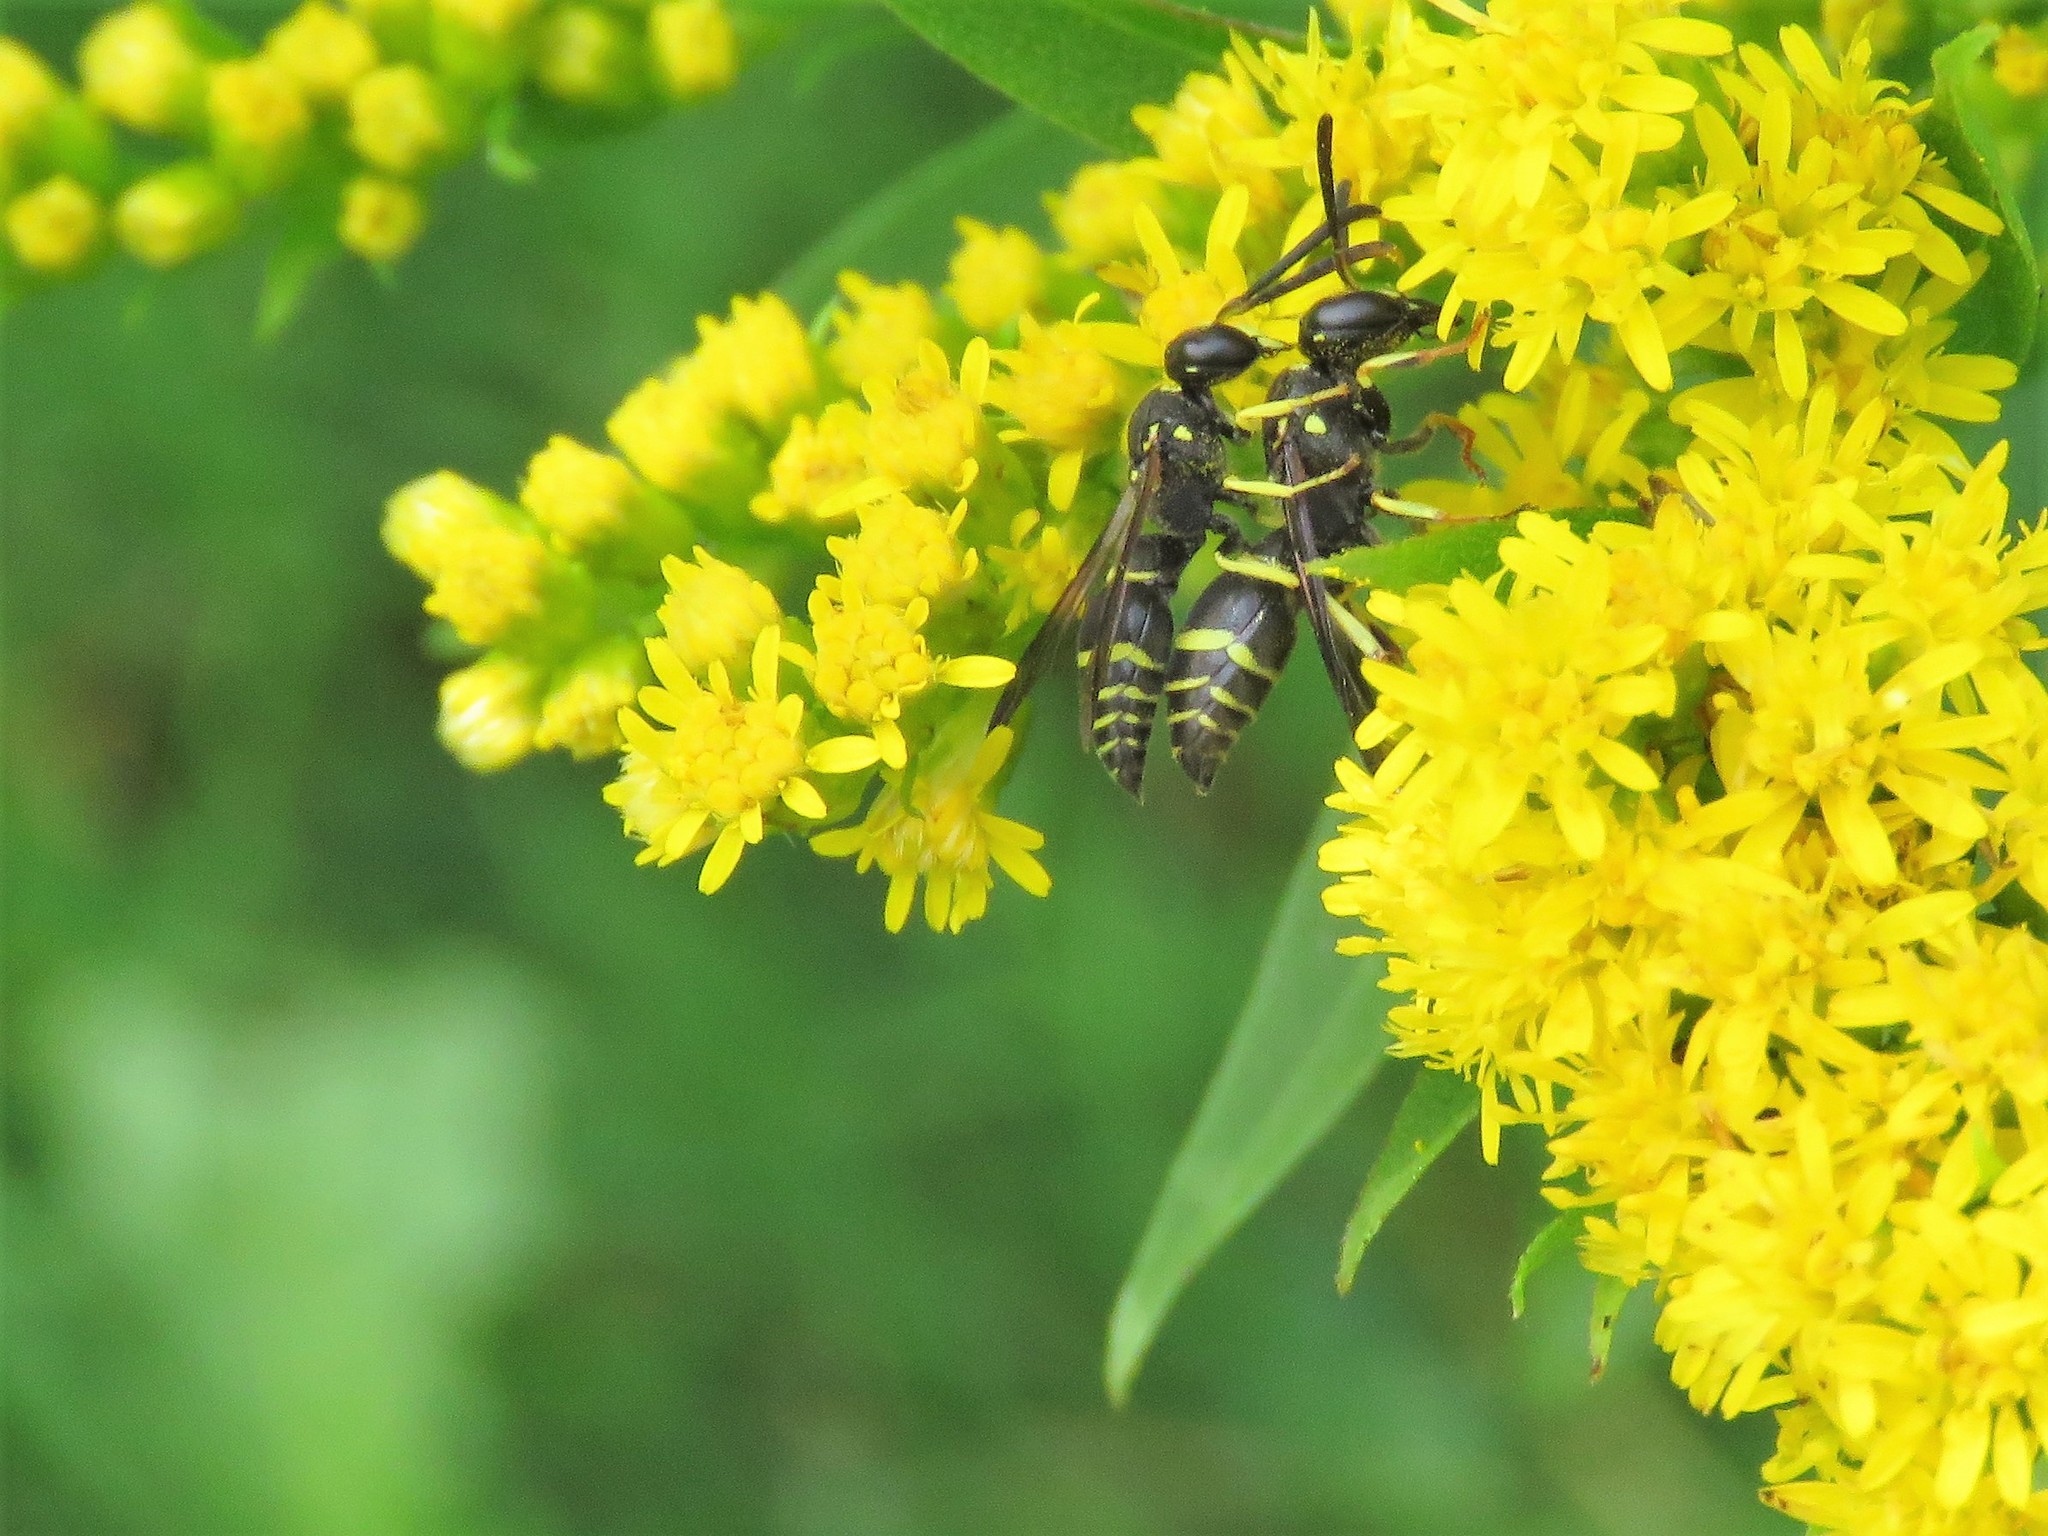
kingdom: Animalia
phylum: Arthropoda
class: Insecta
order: Hymenoptera
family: Vespidae
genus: Ancistrocerus
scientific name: Ancistrocerus
